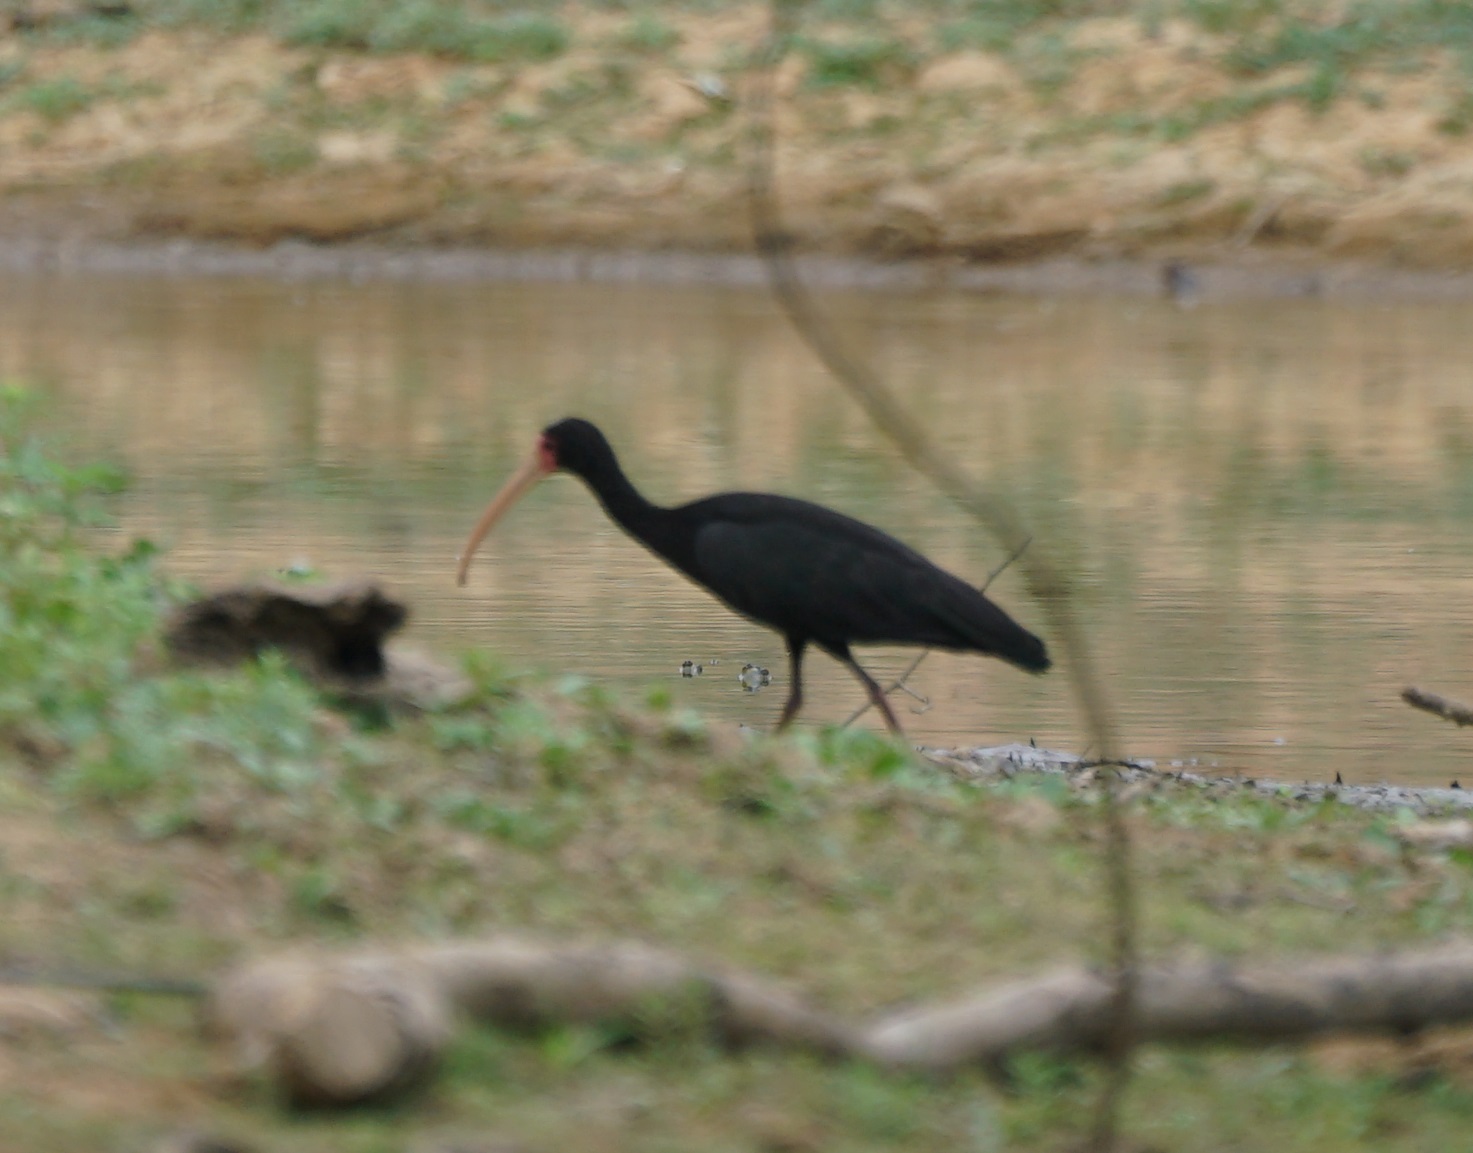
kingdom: Animalia
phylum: Chordata
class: Aves
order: Pelecaniformes
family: Threskiornithidae
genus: Phimosus
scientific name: Phimosus infuscatus
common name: Bare-faced ibis
